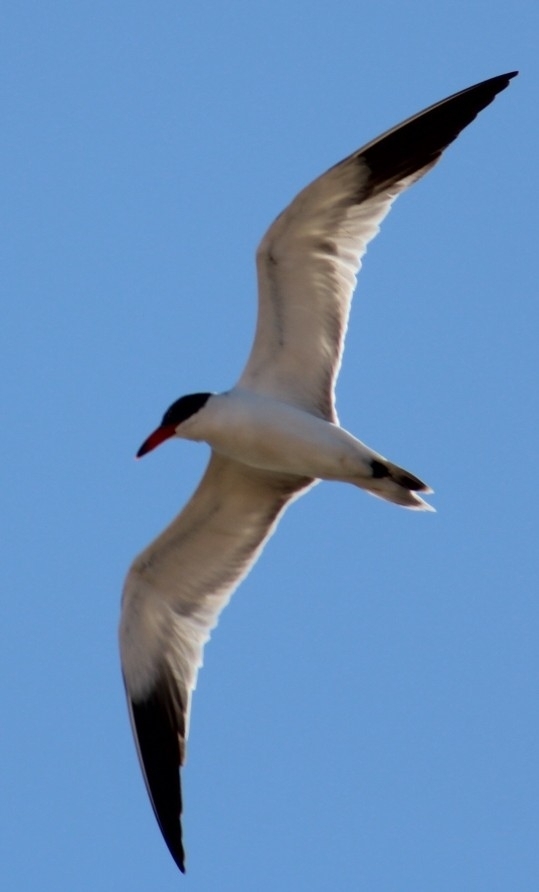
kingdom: Animalia
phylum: Chordata
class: Aves
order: Charadriiformes
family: Laridae
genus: Hydroprogne
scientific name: Hydroprogne caspia
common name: Caspian tern
